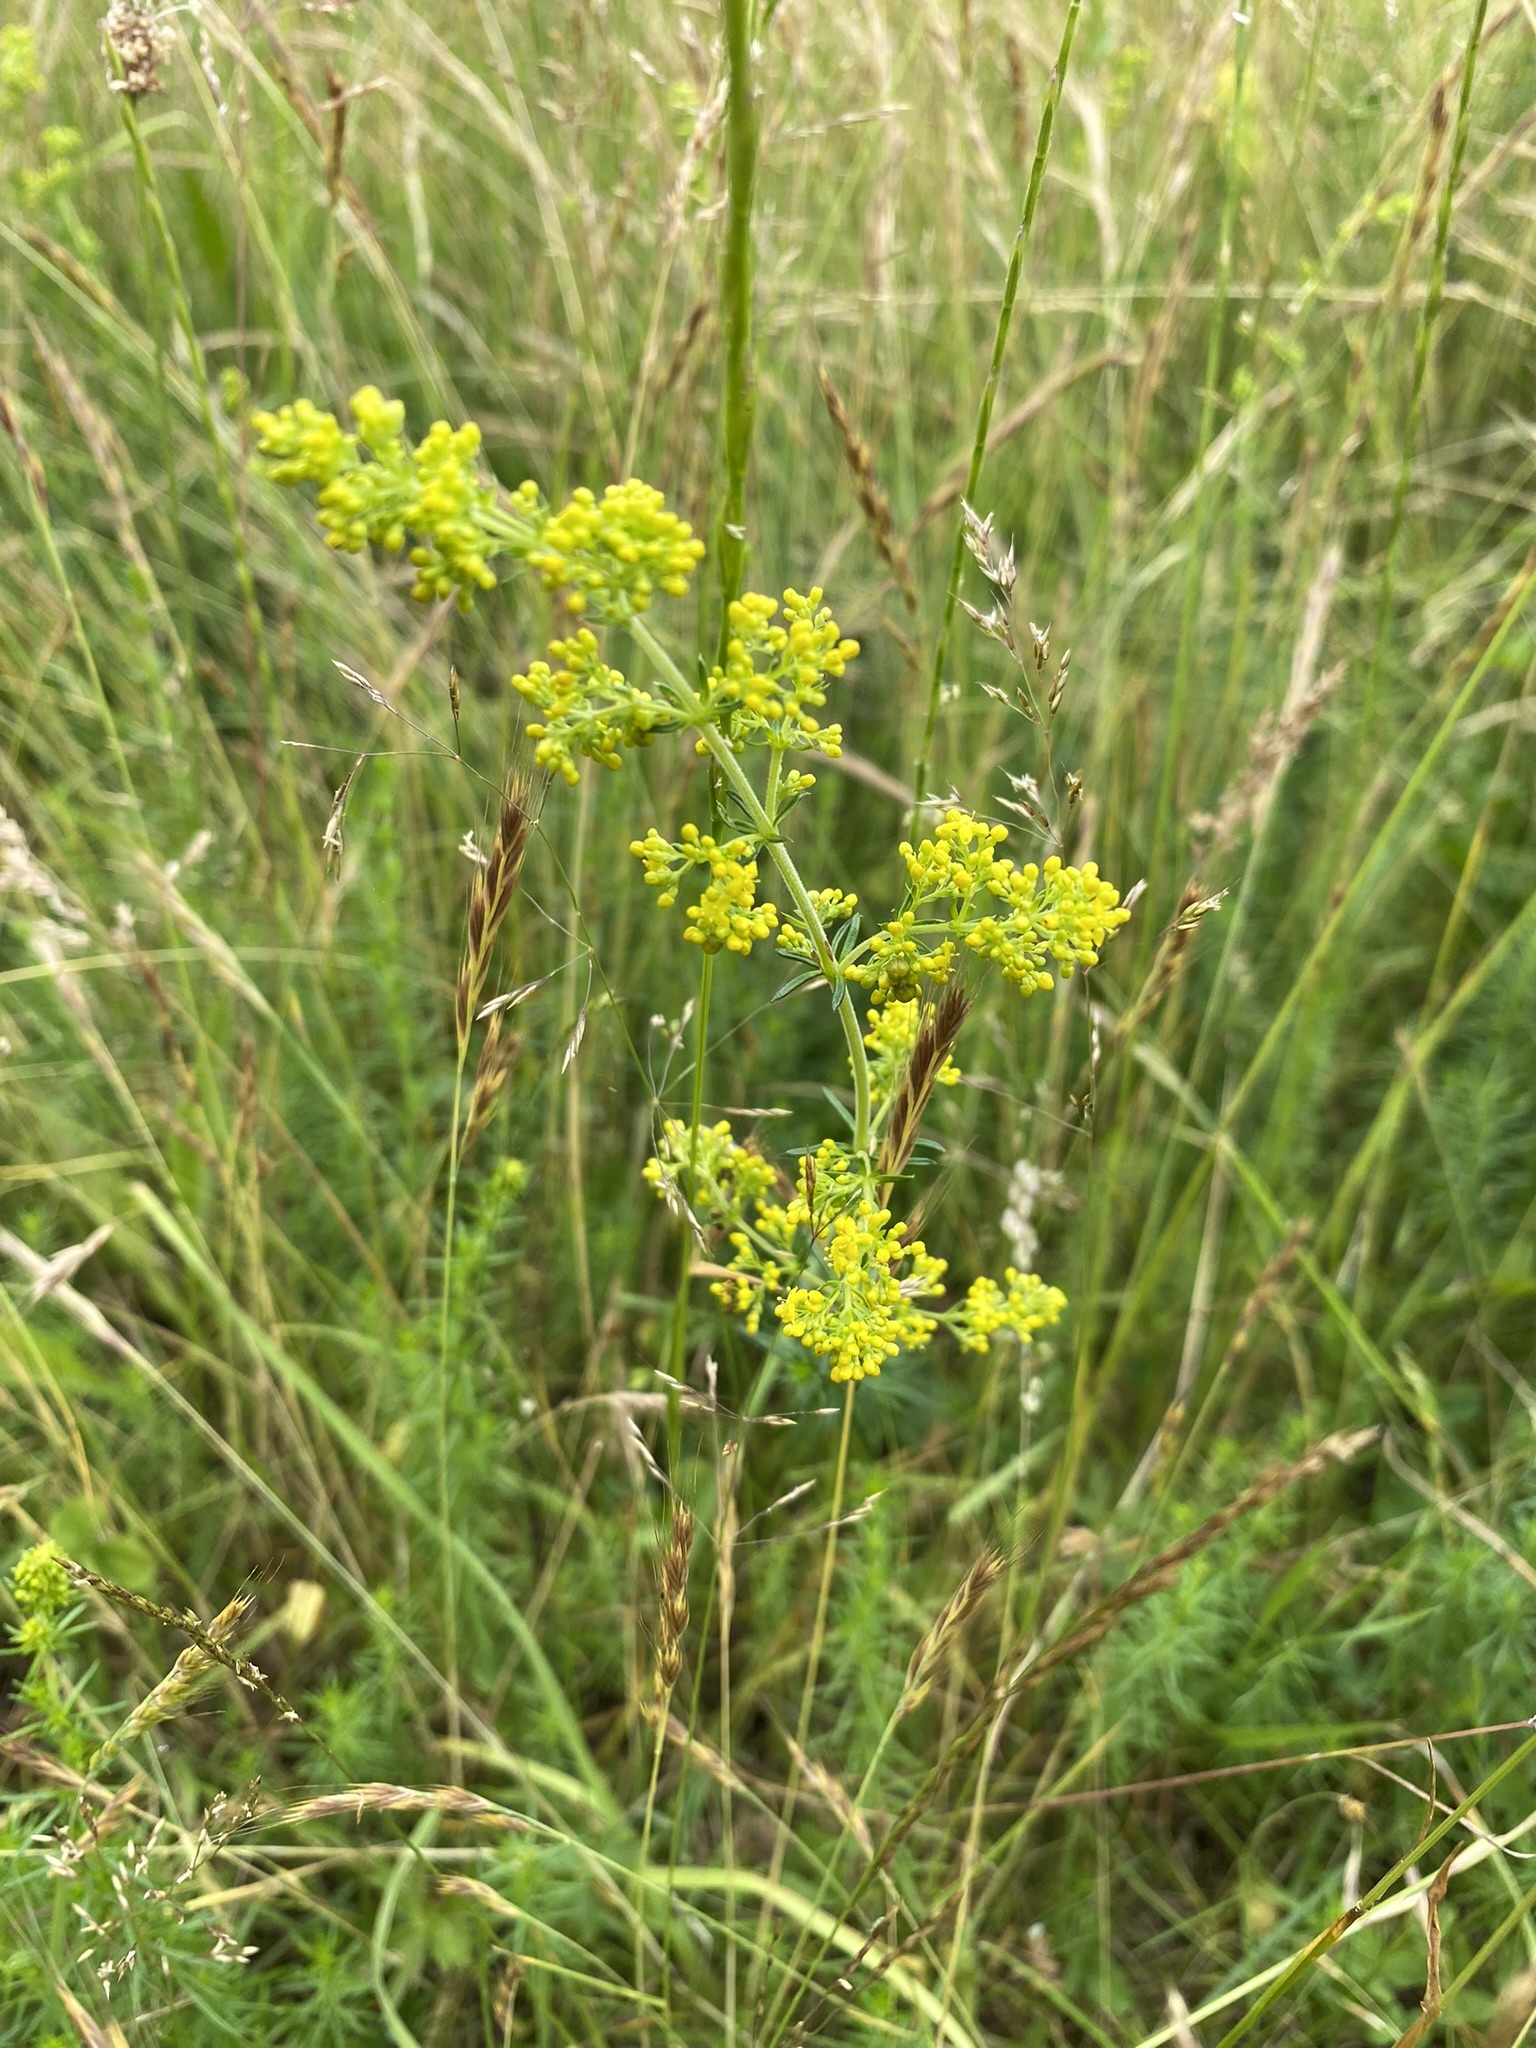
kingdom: Plantae
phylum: Tracheophyta
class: Magnoliopsida
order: Gentianales
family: Rubiaceae
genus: Galium
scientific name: Galium verum
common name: Lady's bedstraw
